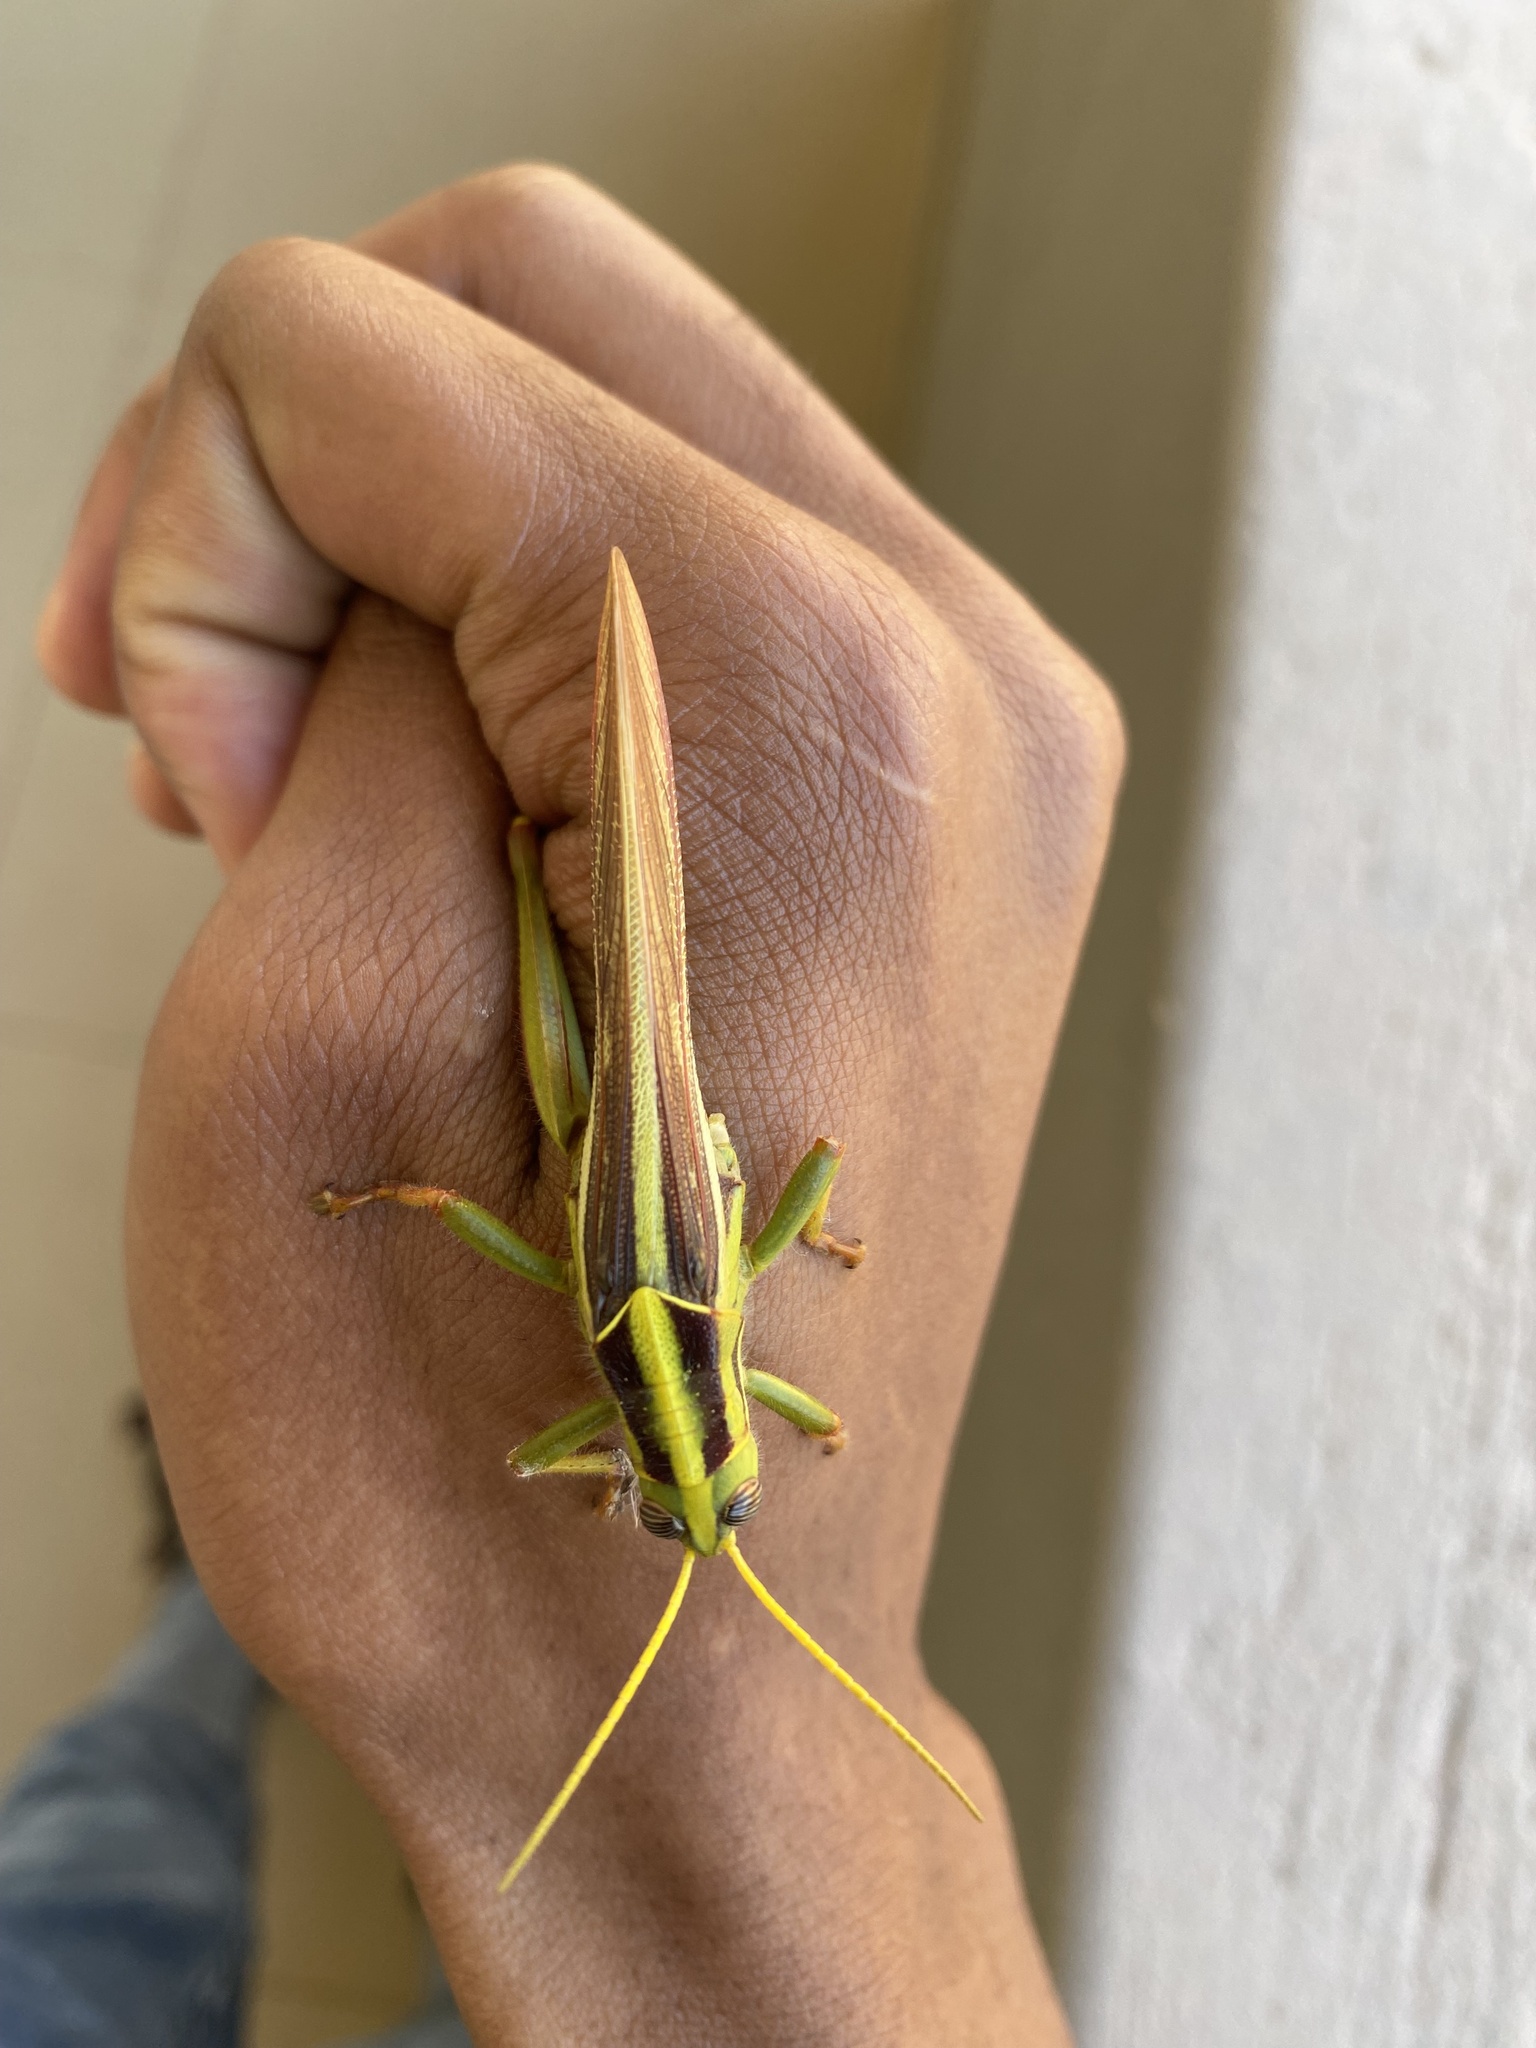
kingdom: Animalia
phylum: Arthropoda
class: Insecta
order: Orthoptera
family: Acrididae
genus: Cyrtacanthacris
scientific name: Cyrtacanthacris aeruginosa
